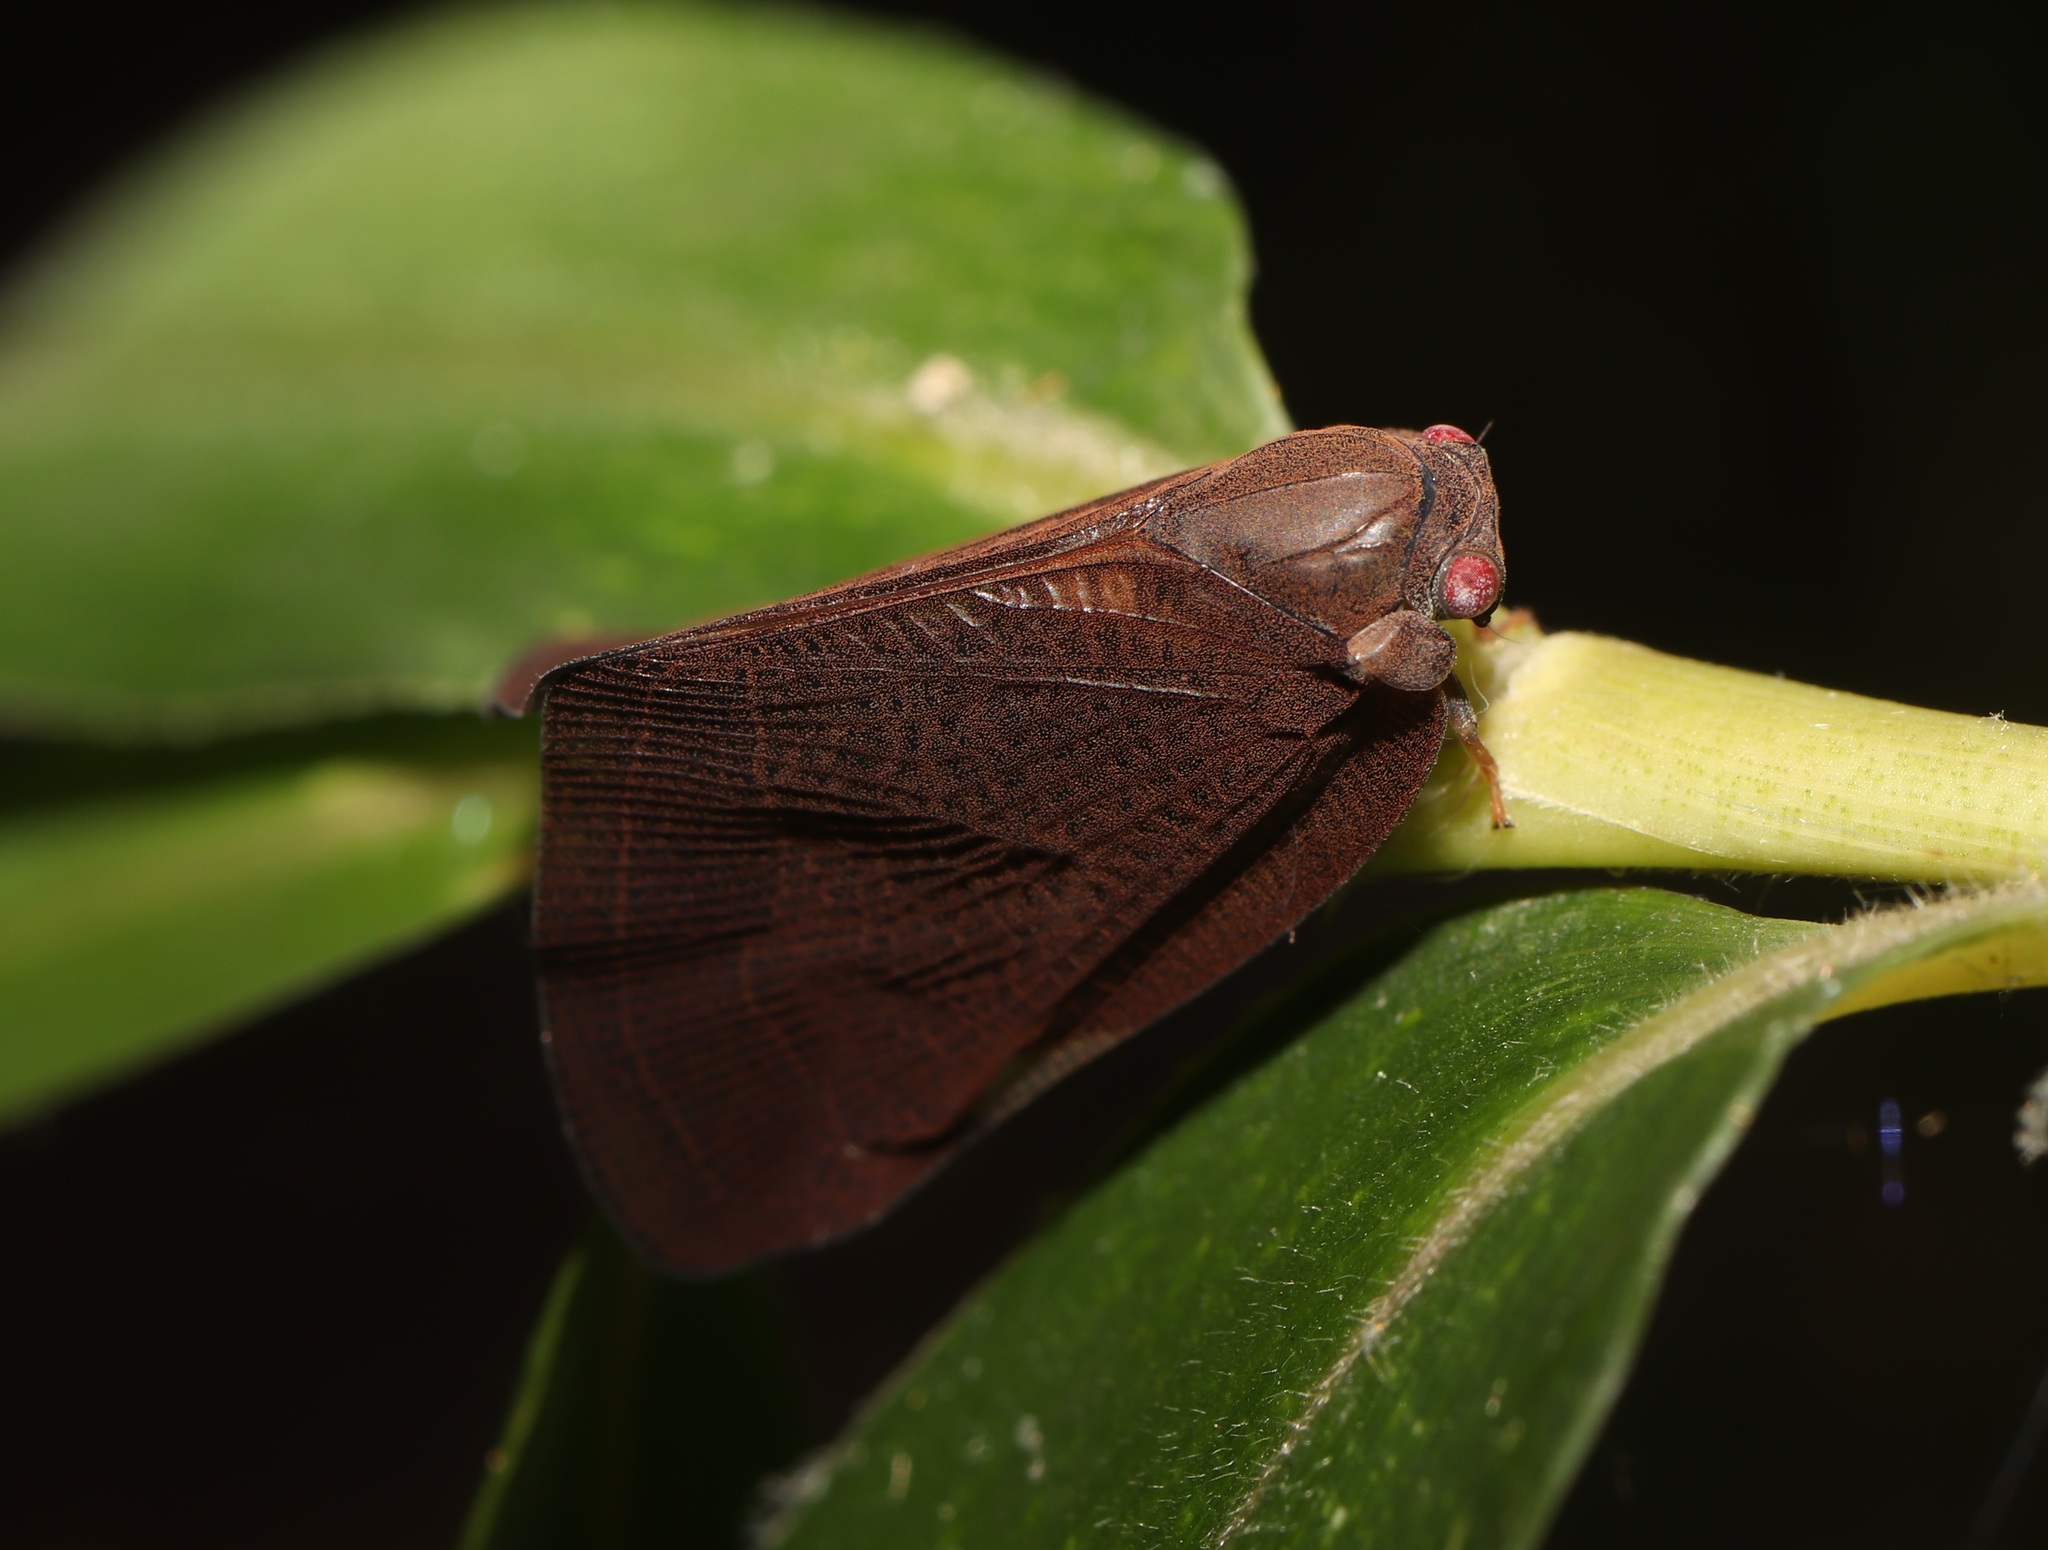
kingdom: Animalia
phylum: Arthropoda
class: Insecta
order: Hemiptera
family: Ricaniidae
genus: Ricania
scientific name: Ricania shantungensis
